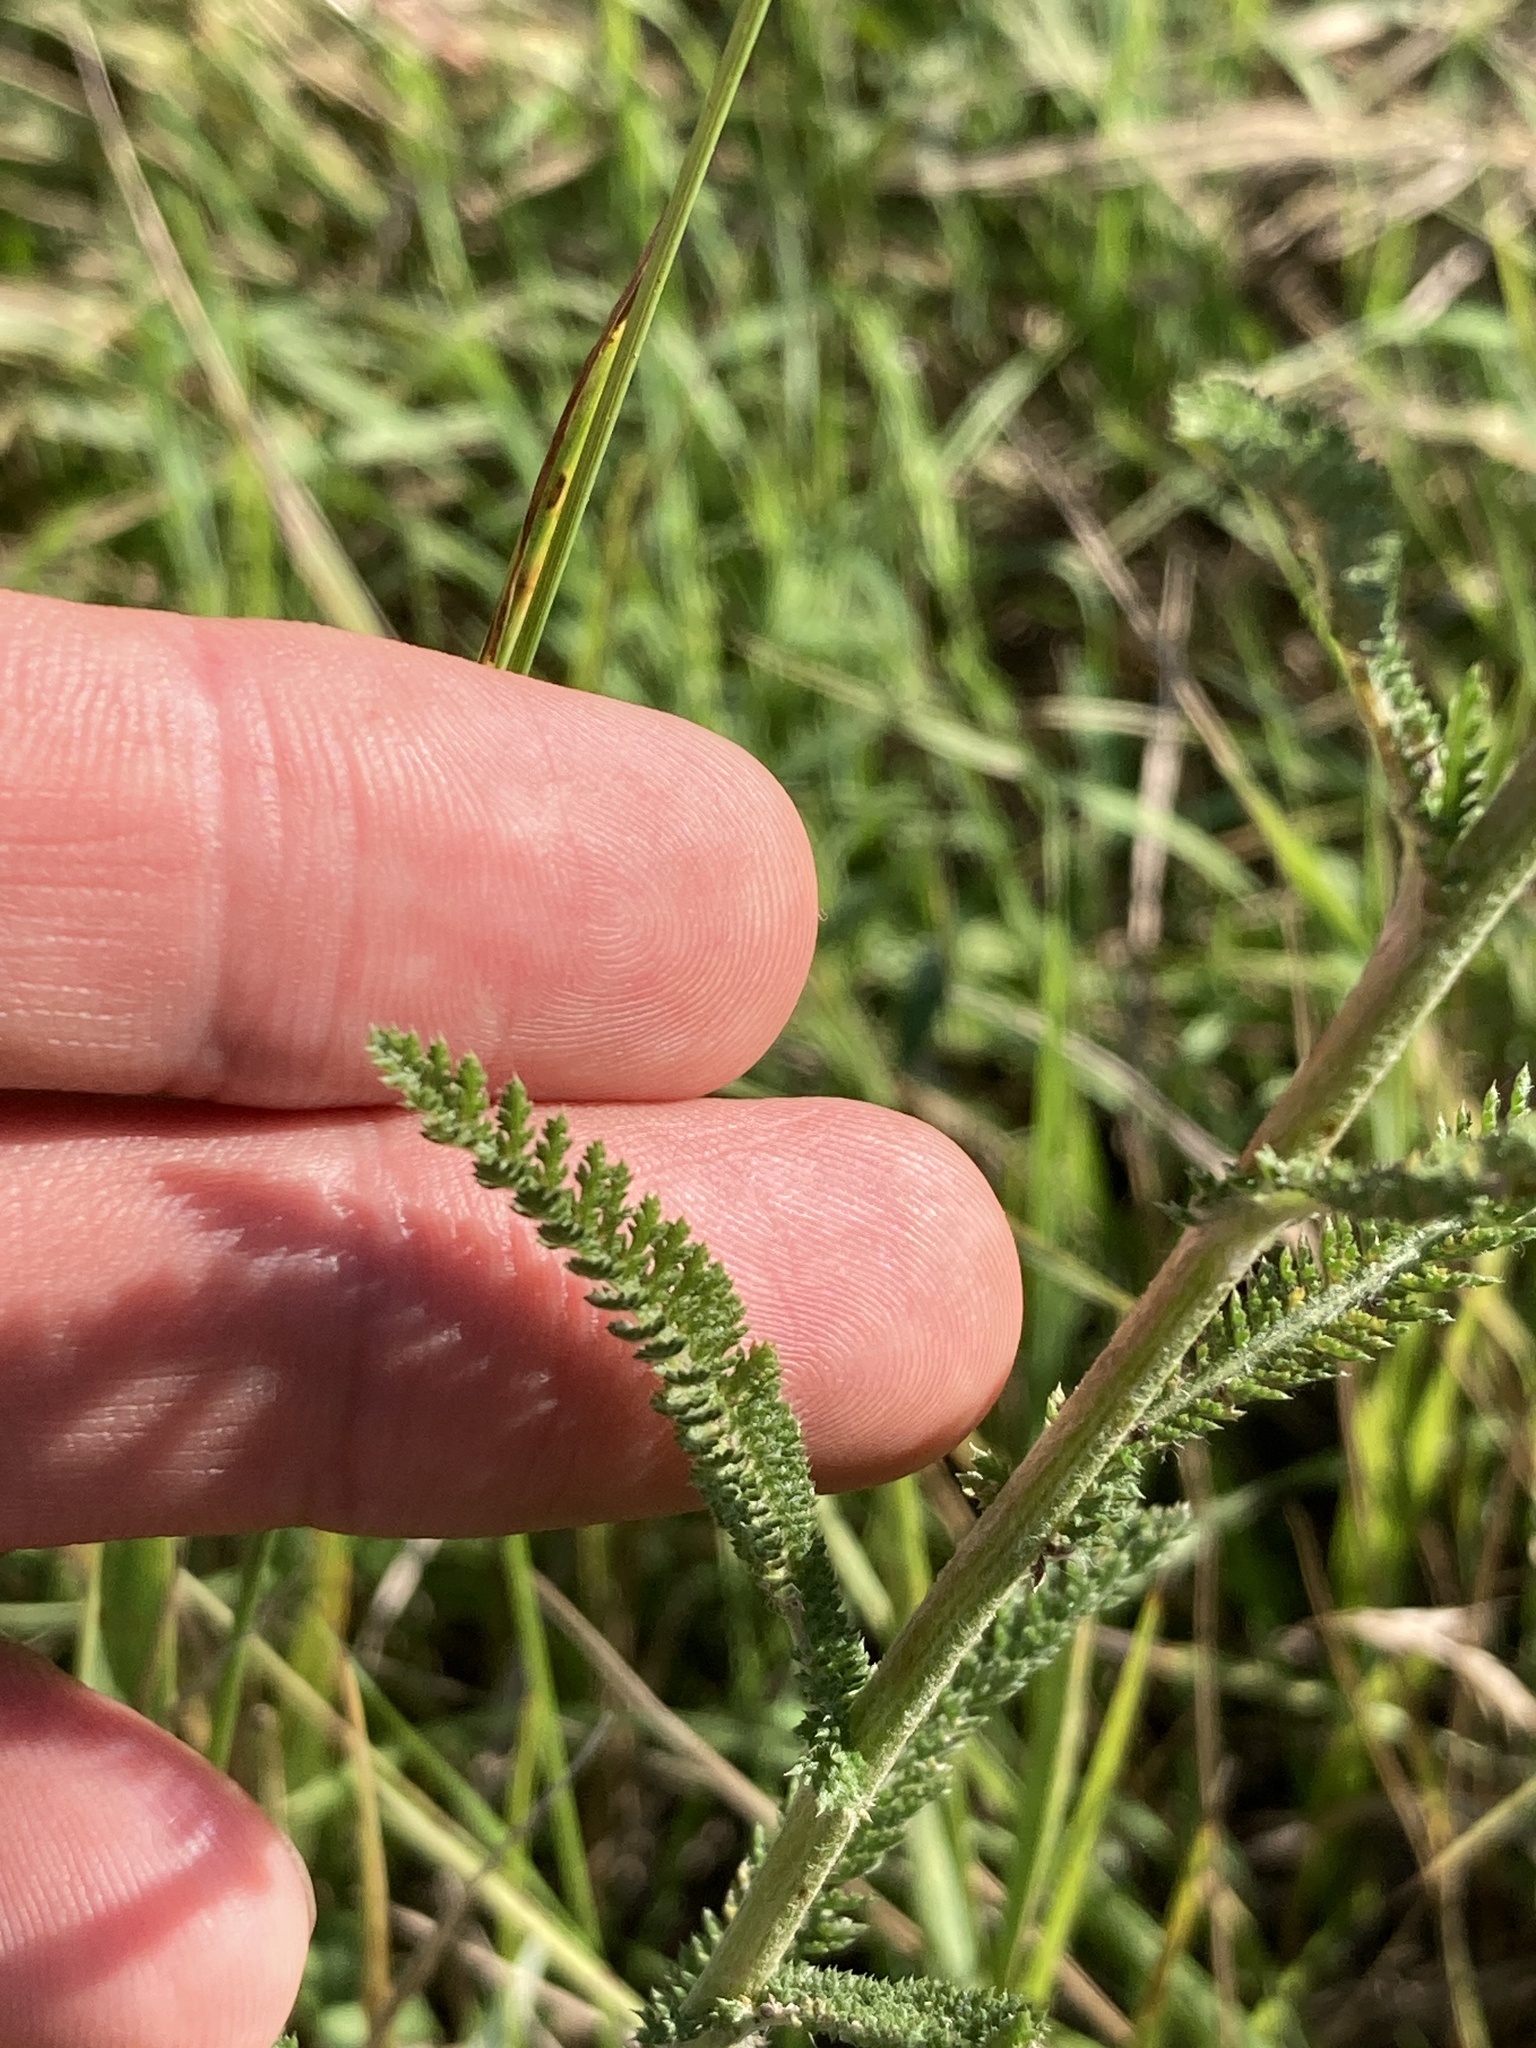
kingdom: Plantae
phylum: Tracheophyta
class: Magnoliopsida
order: Asterales
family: Asteraceae
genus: Achillea
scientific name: Achillea millefolium
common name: Yarrow
